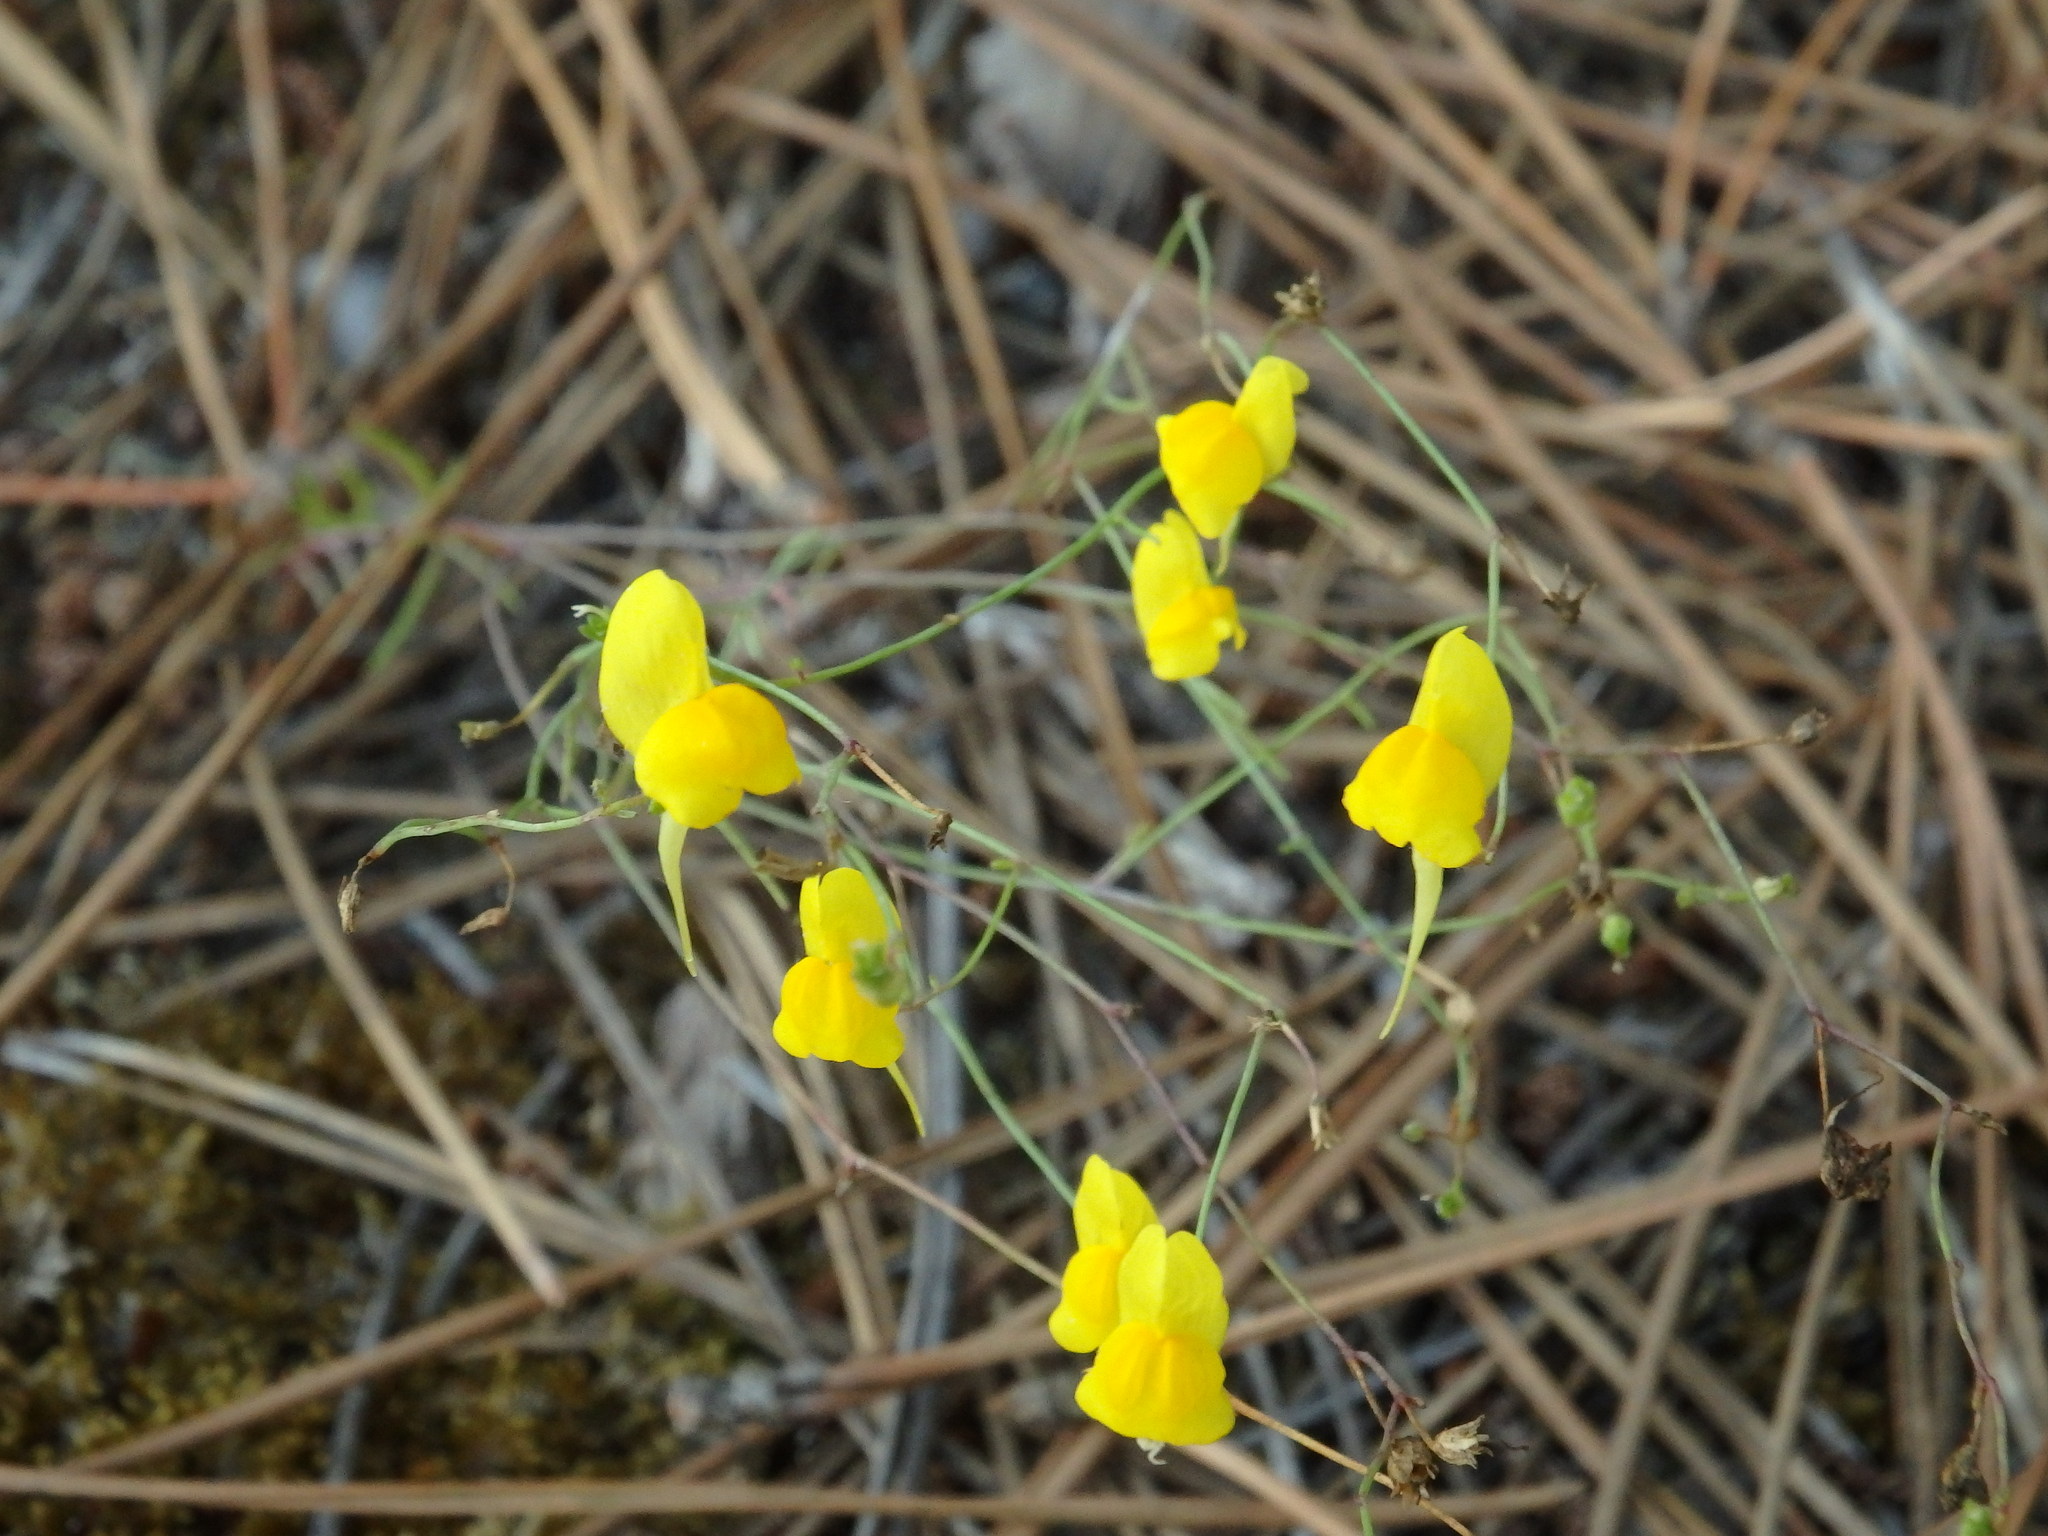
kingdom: Plantae
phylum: Tracheophyta
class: Magnoliopsida
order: Lamiales
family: Plantaginaceae
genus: Linaria
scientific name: Linaria spartea
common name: Ballast toadflax
